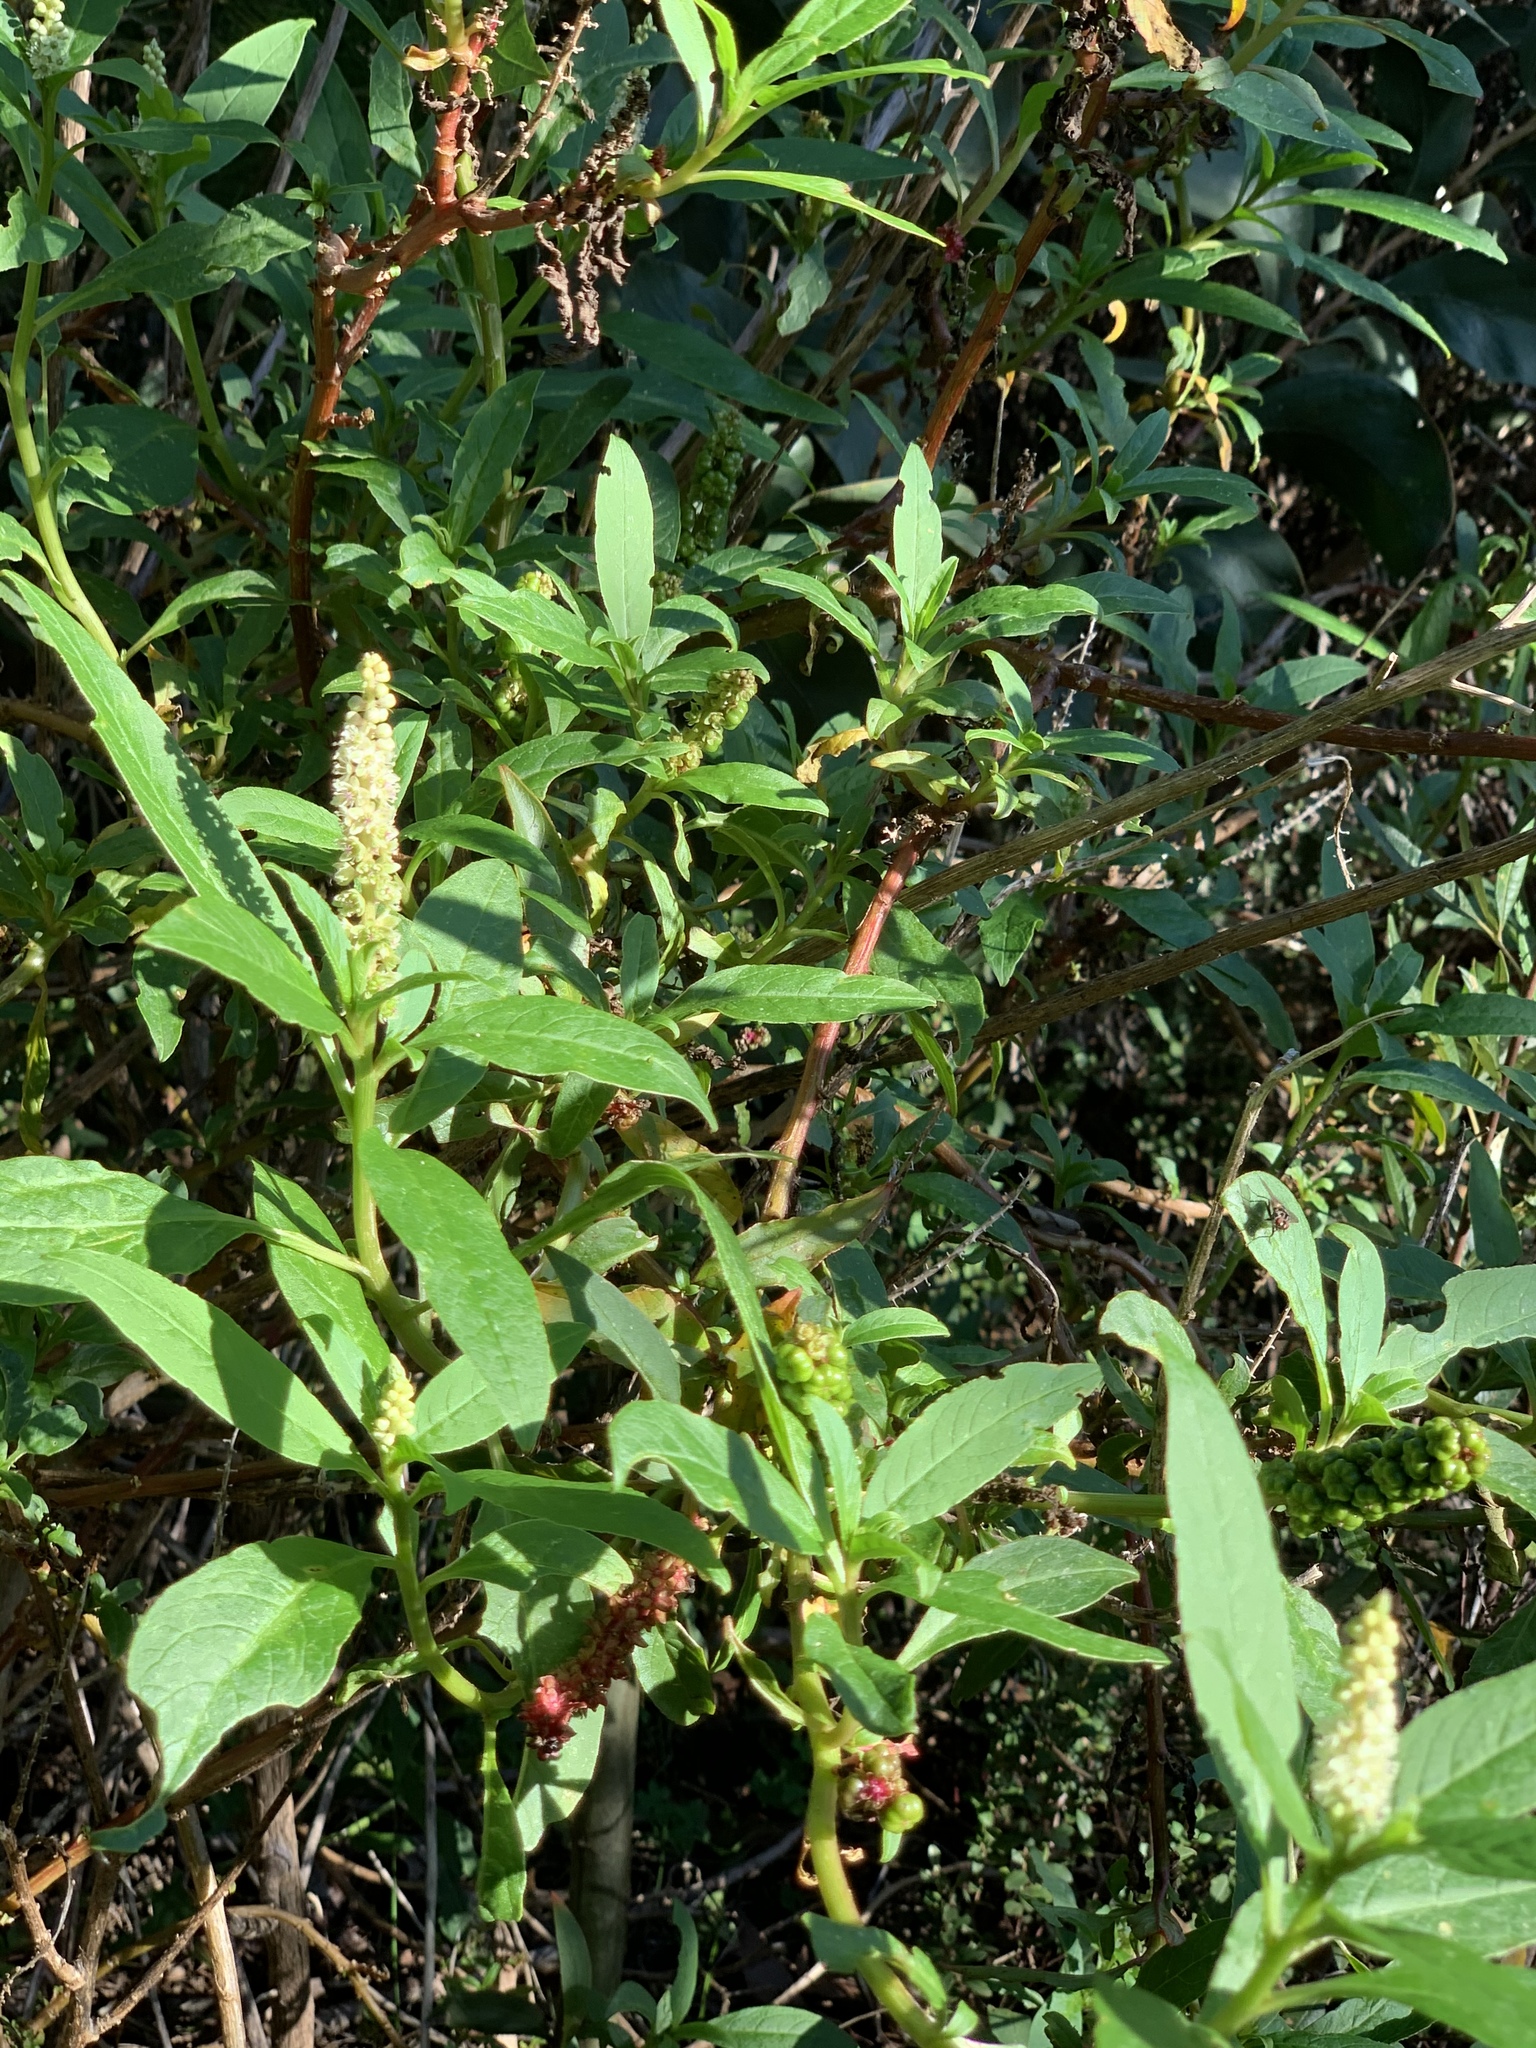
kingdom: Plantae
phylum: Tracheophyta
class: Magnoliopsida
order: Caryophyllales
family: Phytolaccaceae
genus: Phytolacca
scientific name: Phytolacca icosandra
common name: Button pokeweed
